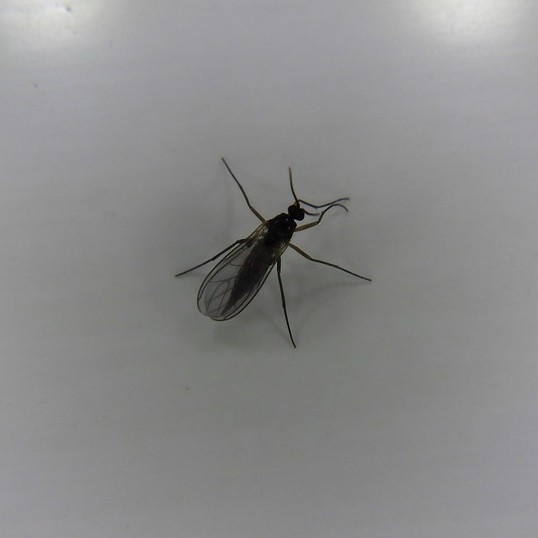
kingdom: Animalia
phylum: Arthropoda
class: Insecta
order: Diptera
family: Sciaridae
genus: Sciara
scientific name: Sciara hemerobioides
